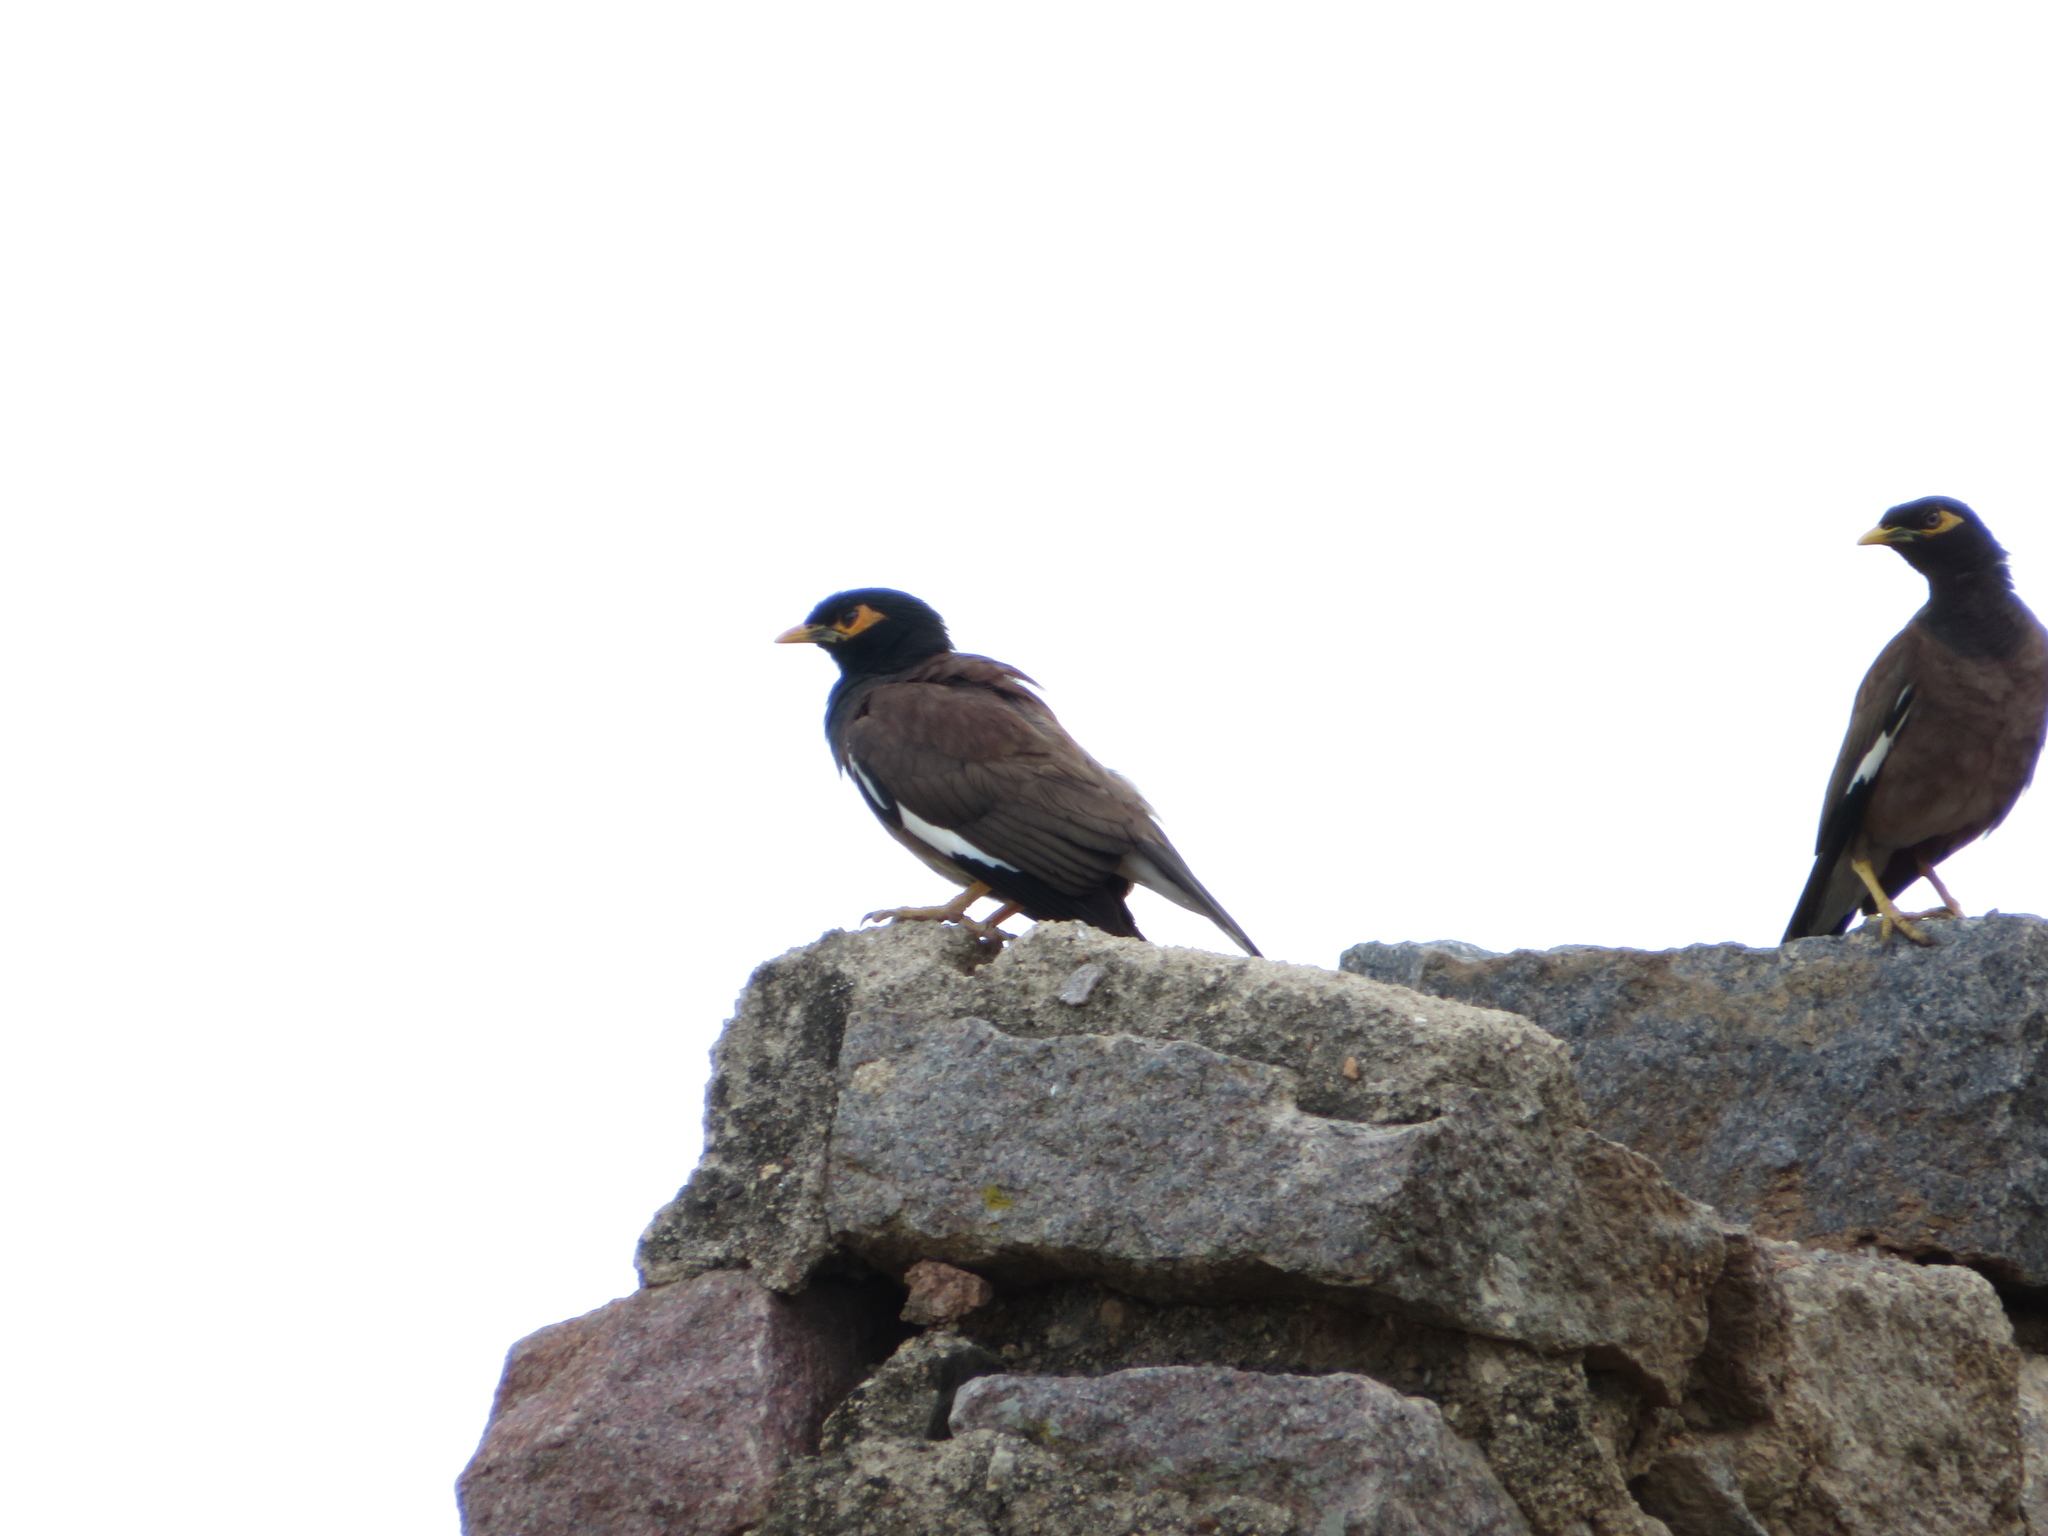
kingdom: Animalia
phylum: Chordata
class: Aves
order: Passeriformes
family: Sturnidae
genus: Acridotheres
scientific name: Acridotheres tristis
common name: Common myna
